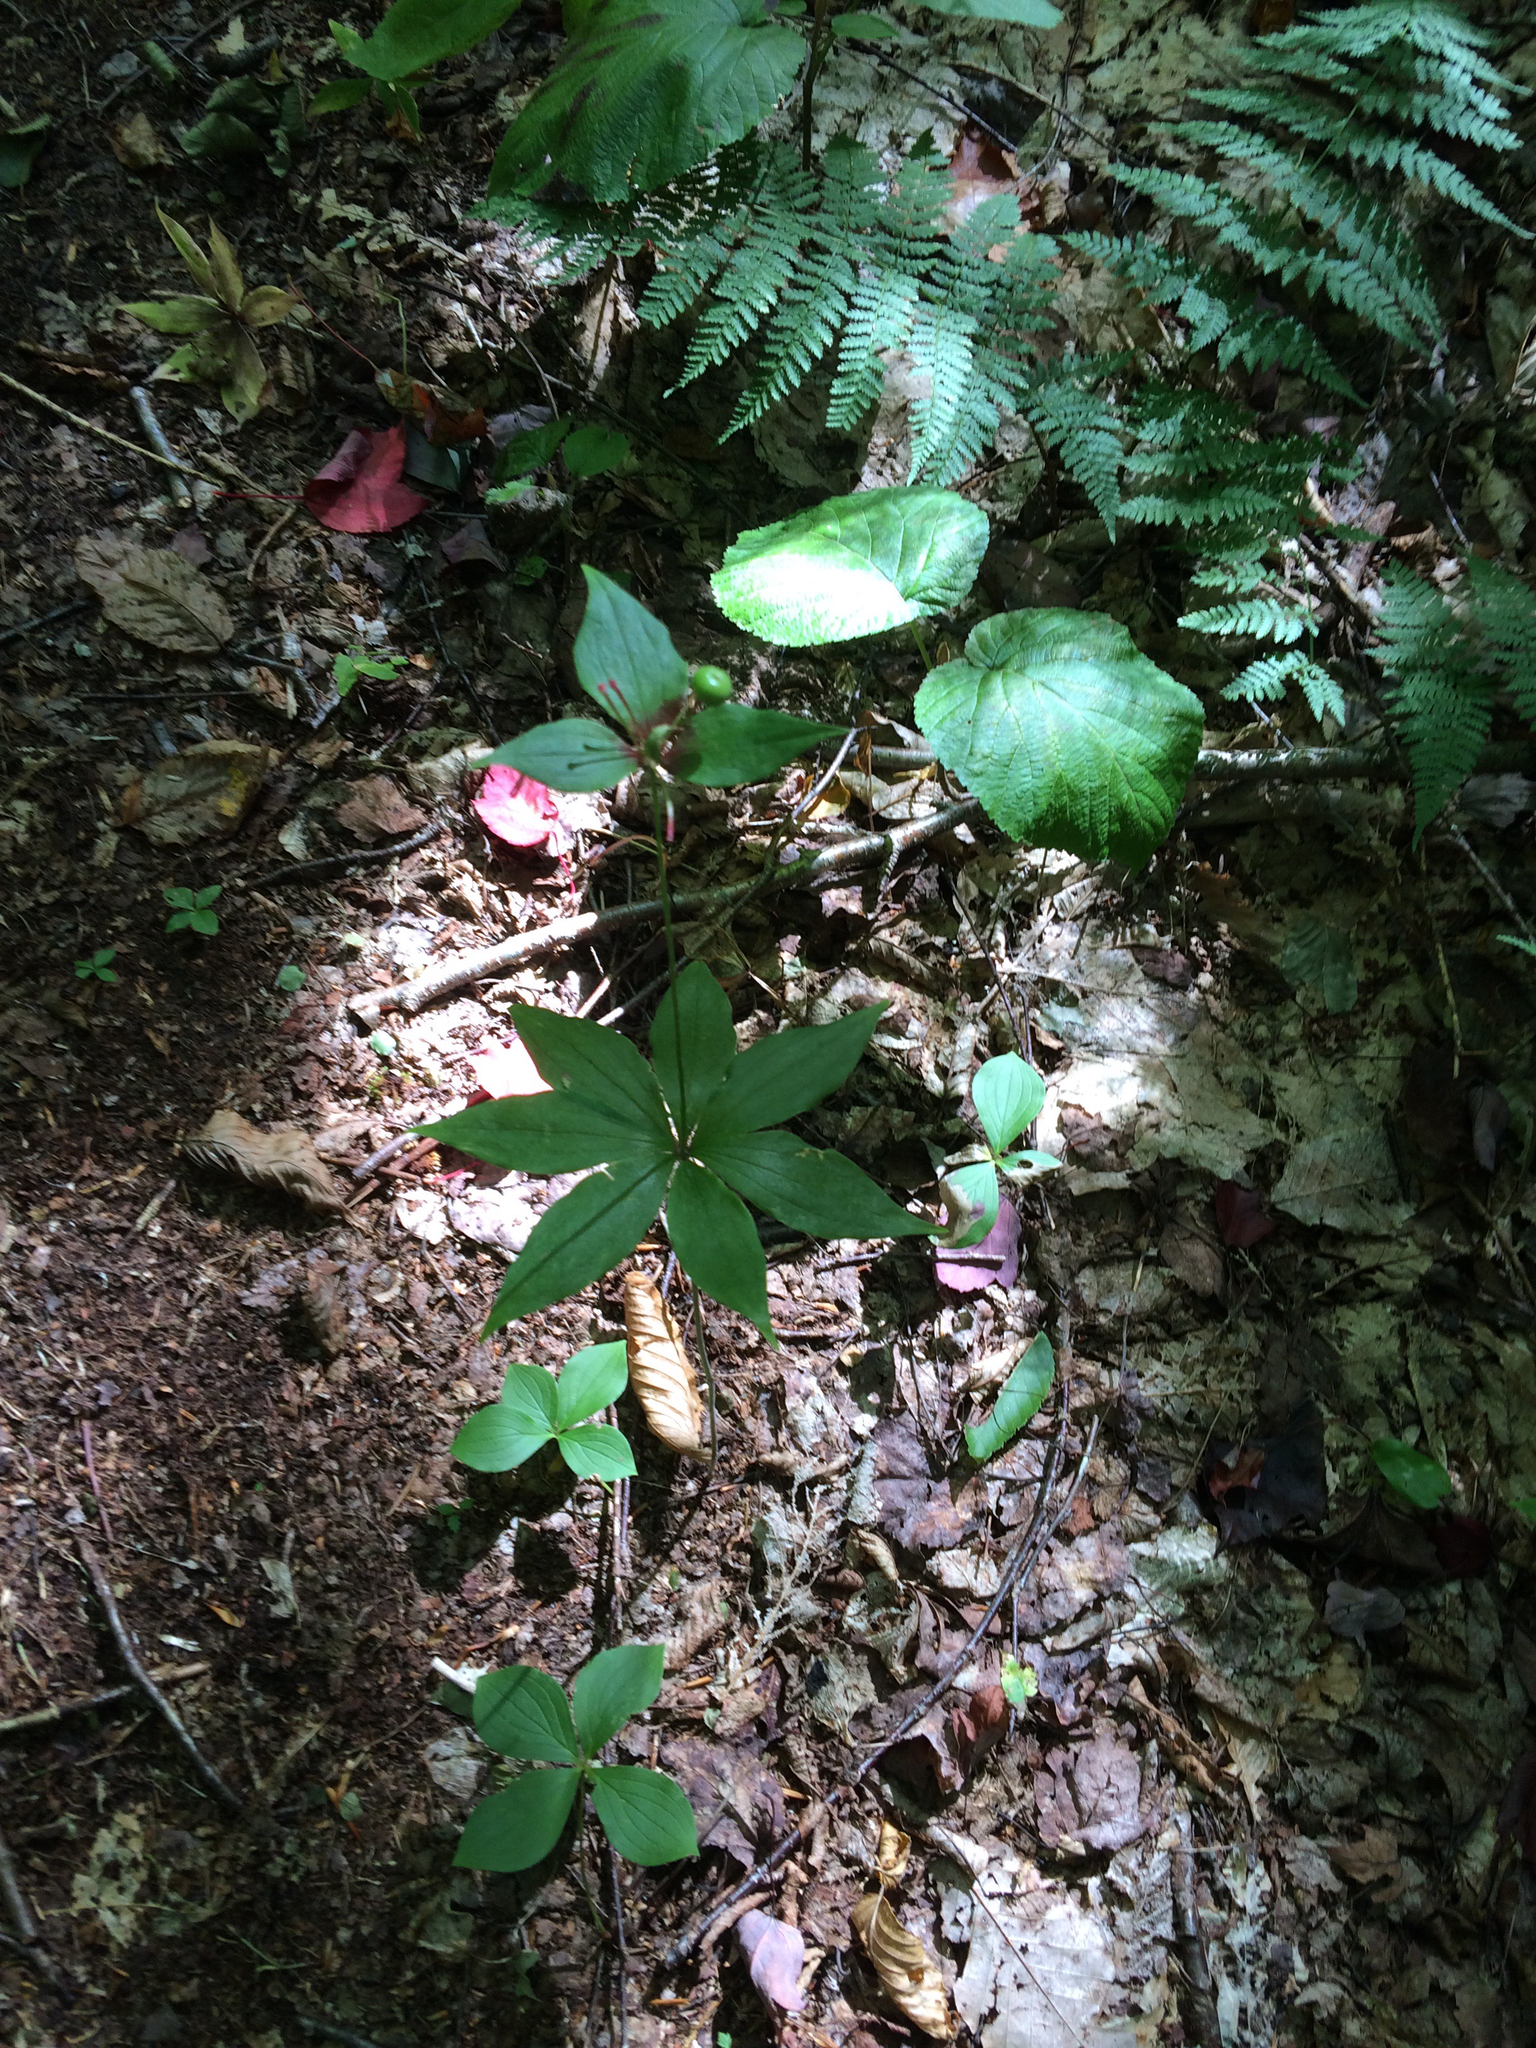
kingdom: Plantae
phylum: Tracheophyta
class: Liliopsida
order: Liliales
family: Liliaceae
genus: Medeola
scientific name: Medeola virginiana
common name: Indian cucumber-root
